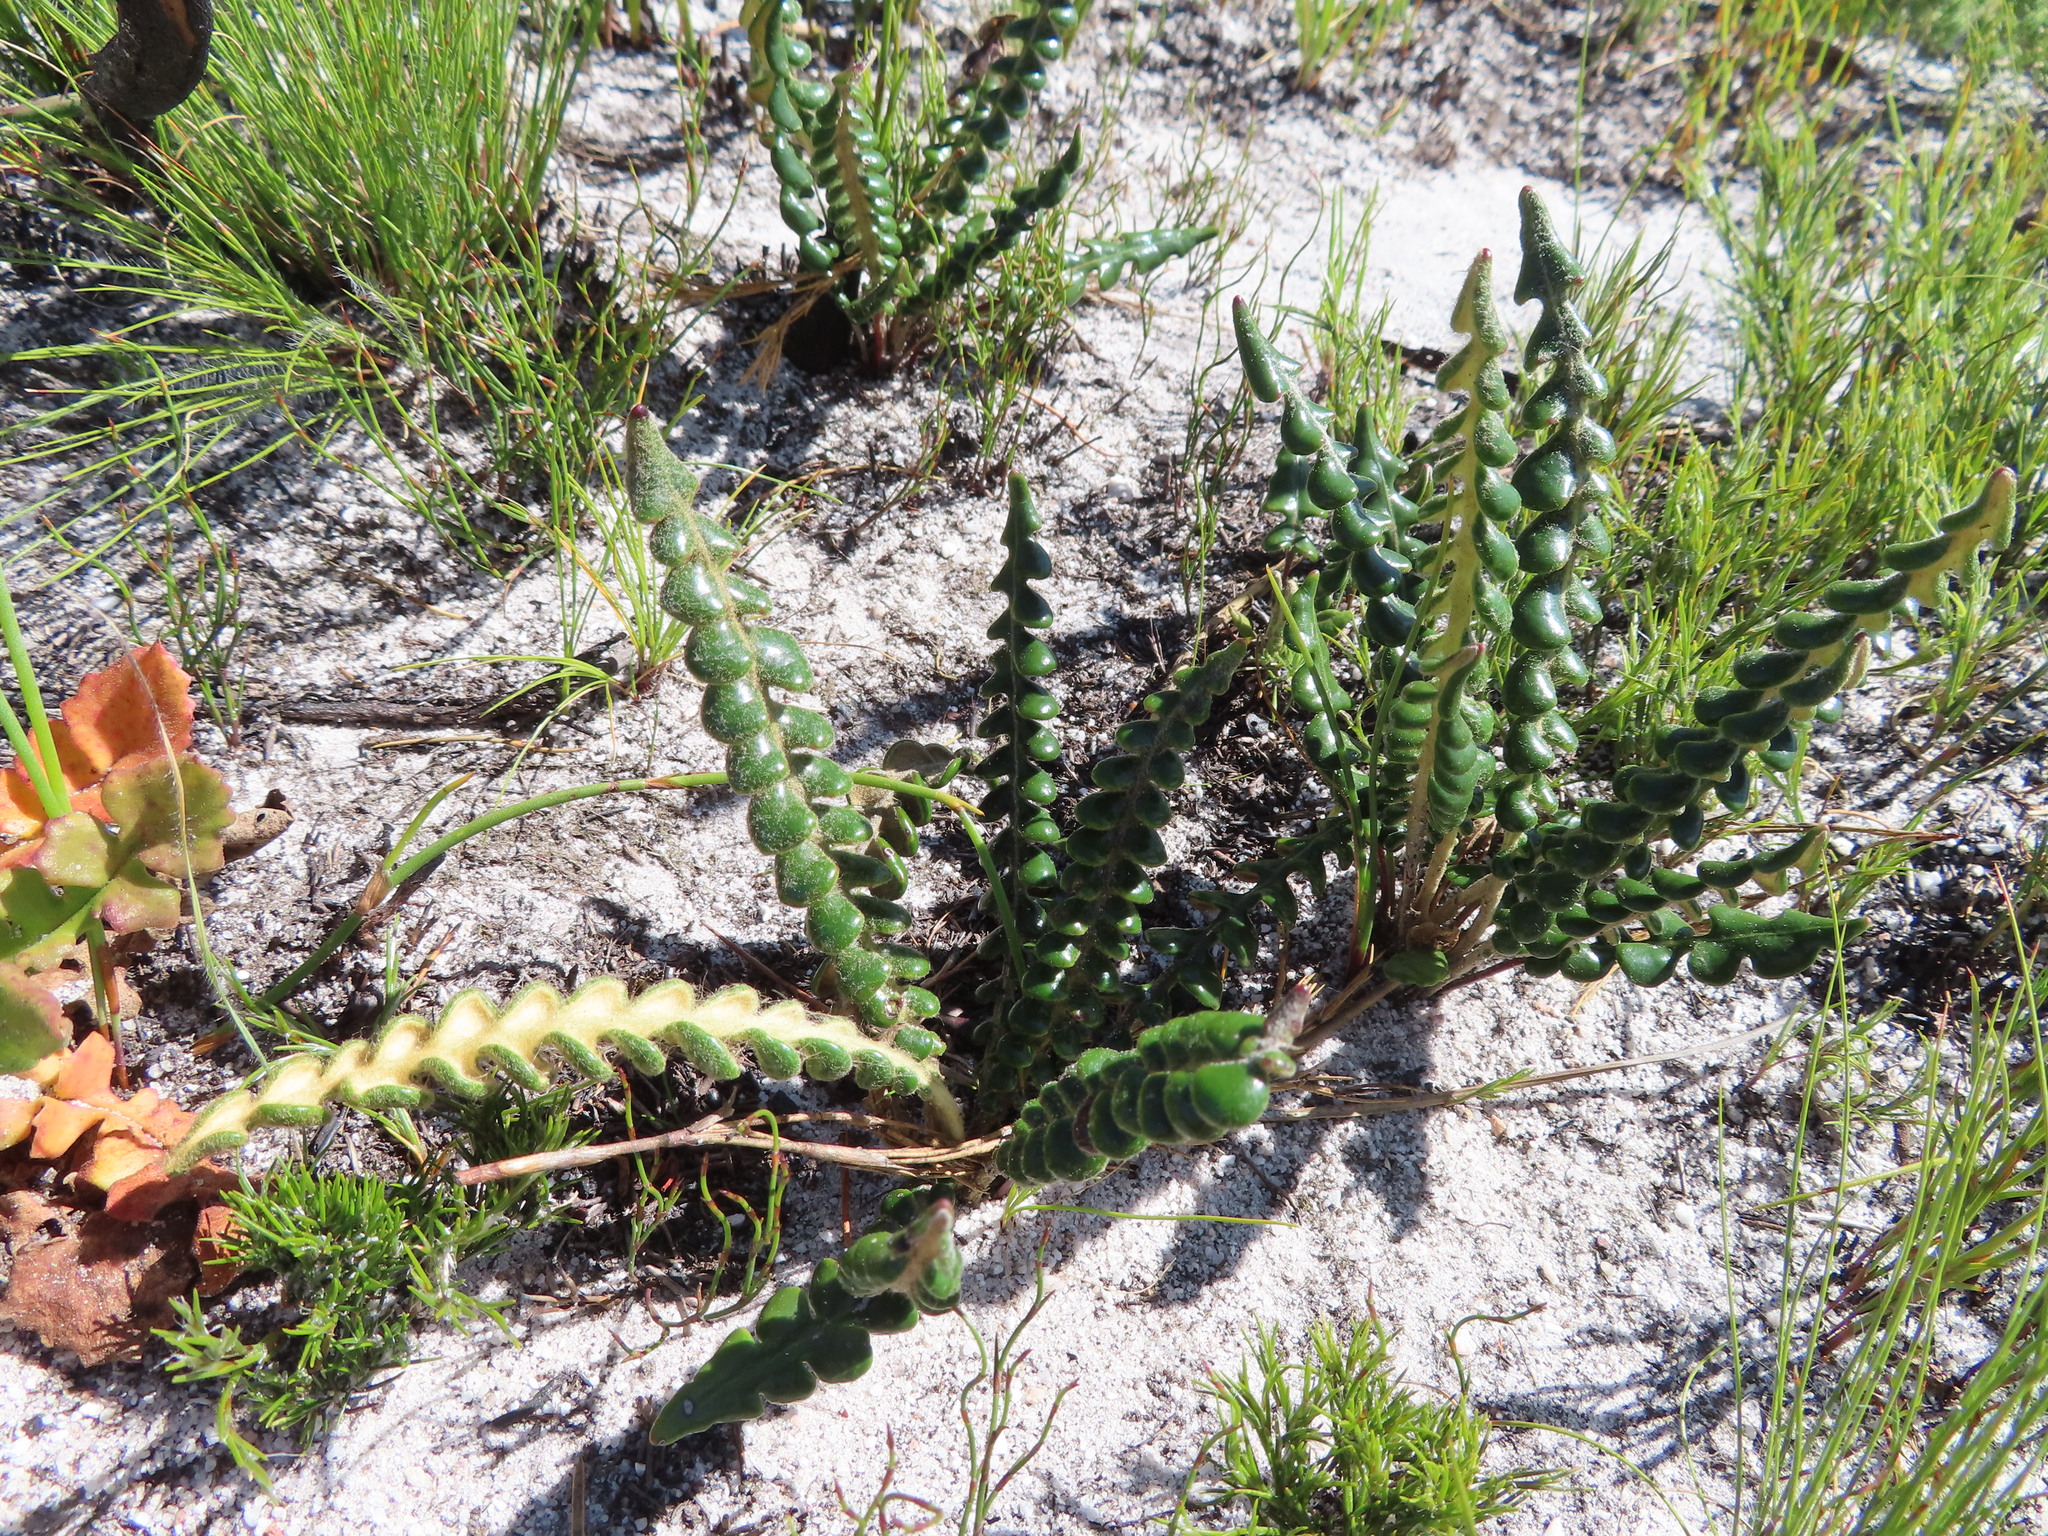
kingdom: Plantae
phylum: Tracheophyta
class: Magnoliopsida
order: Asterales
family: Asteraceae
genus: Gerbera
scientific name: Gerbera linnaei
